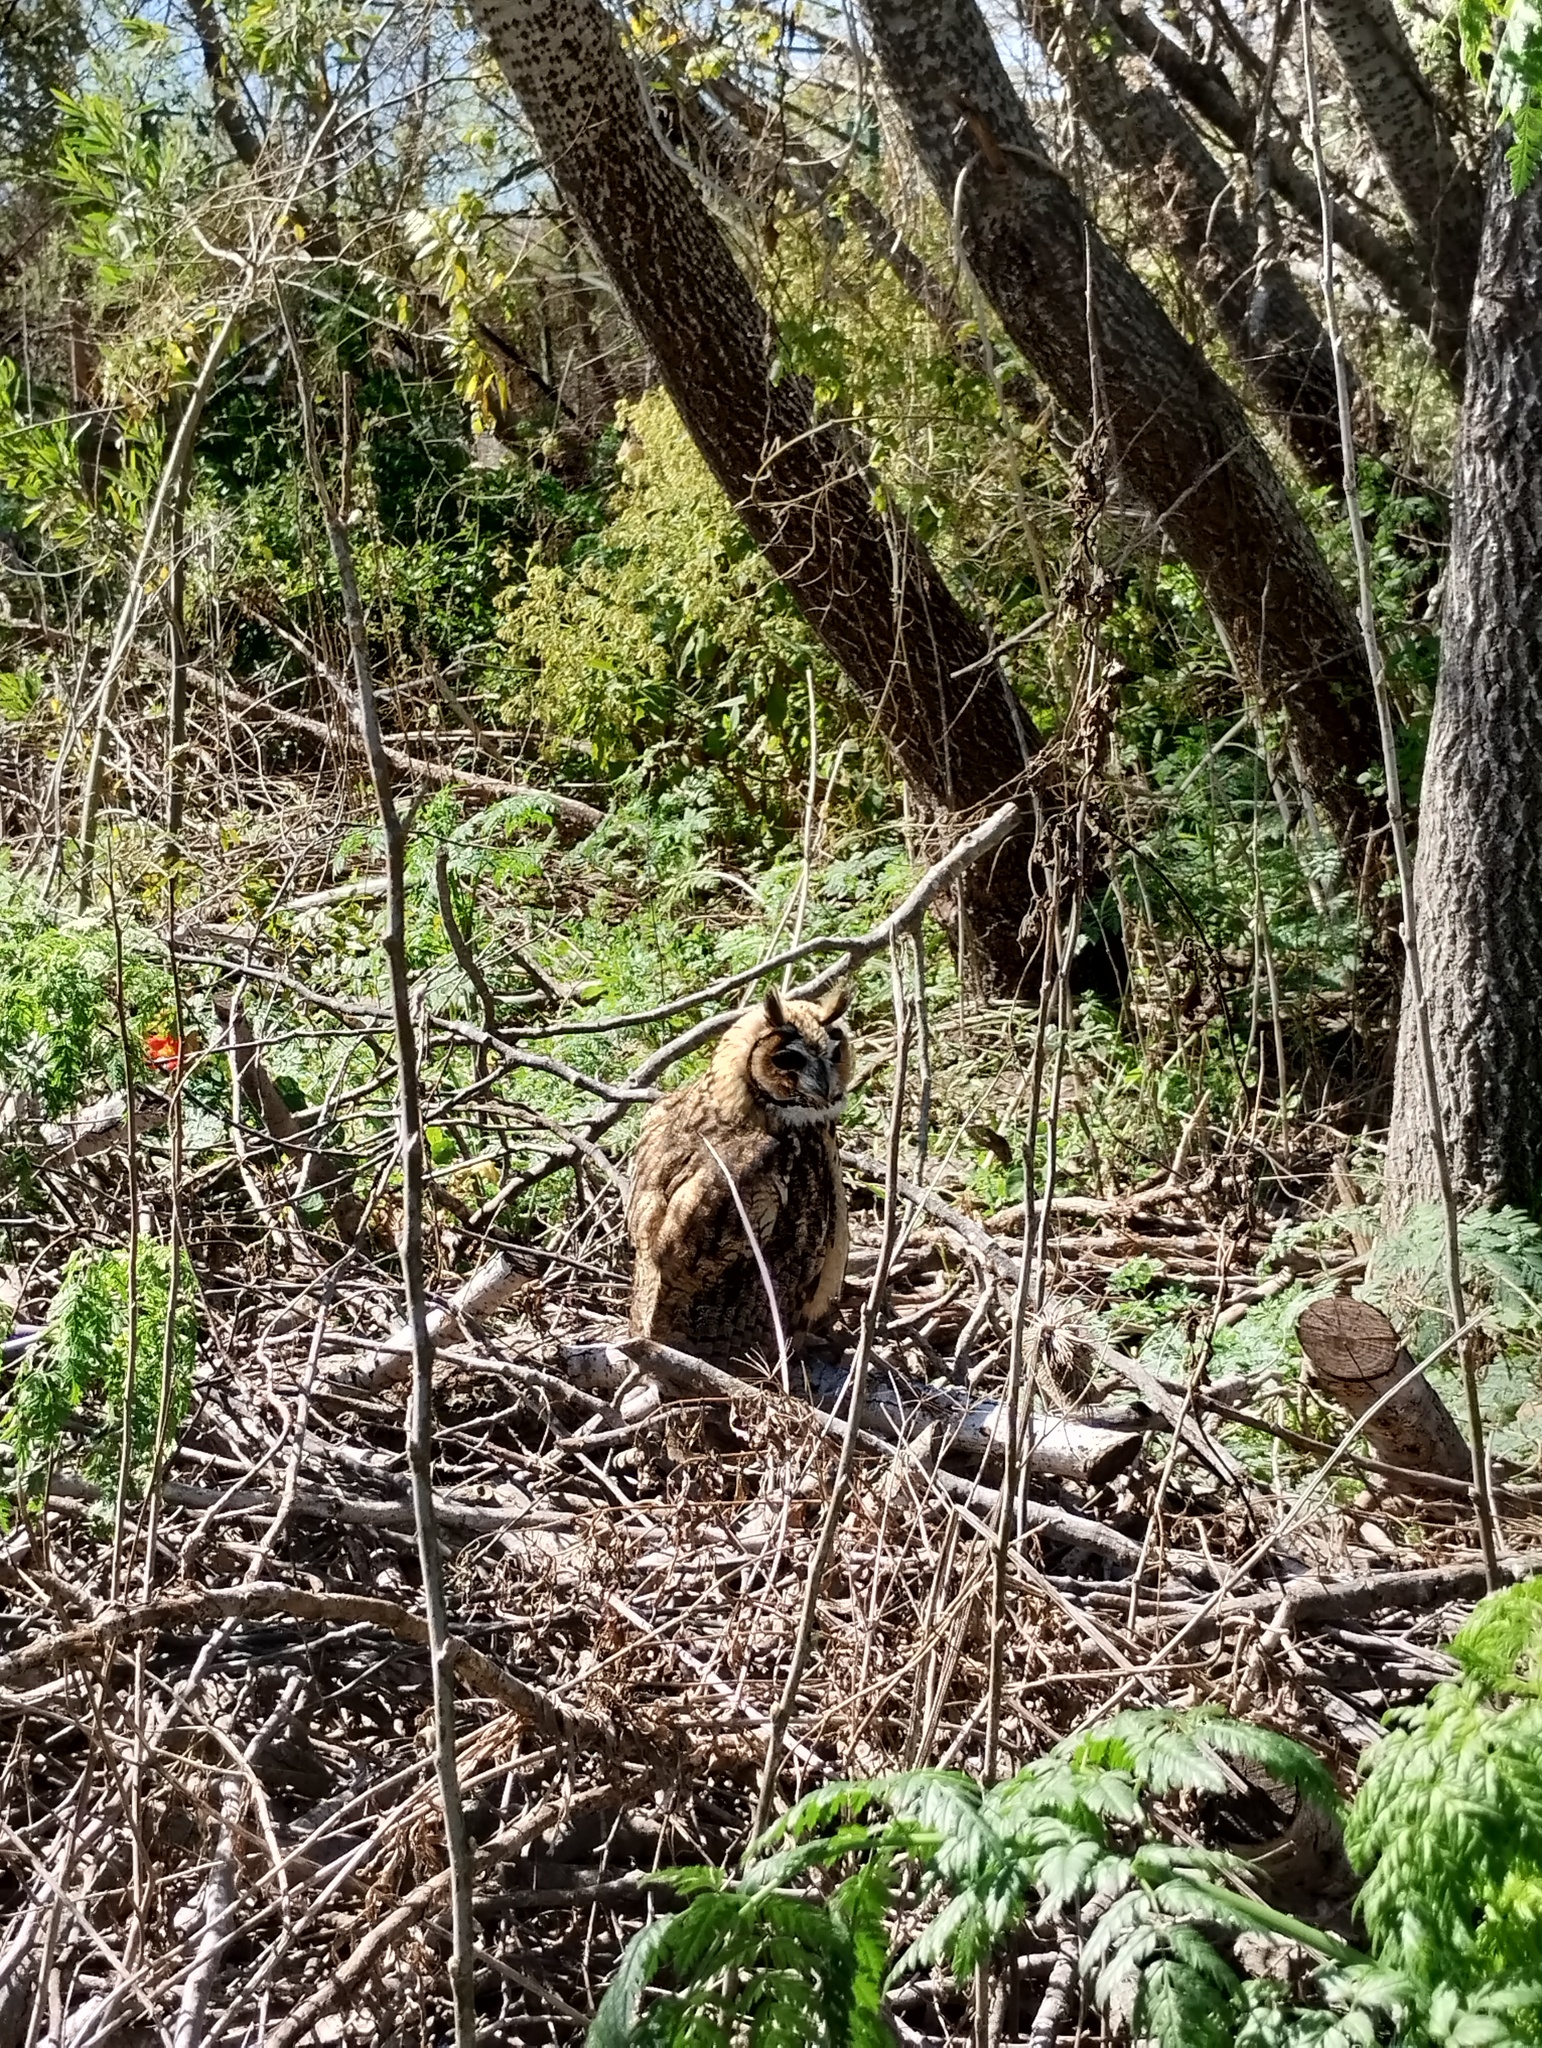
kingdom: Animalia
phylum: Chordata
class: Aves
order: Strigiformes
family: Strigidae
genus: Pseudoscops
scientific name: Pseudoscops clamator
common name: Striped owl
